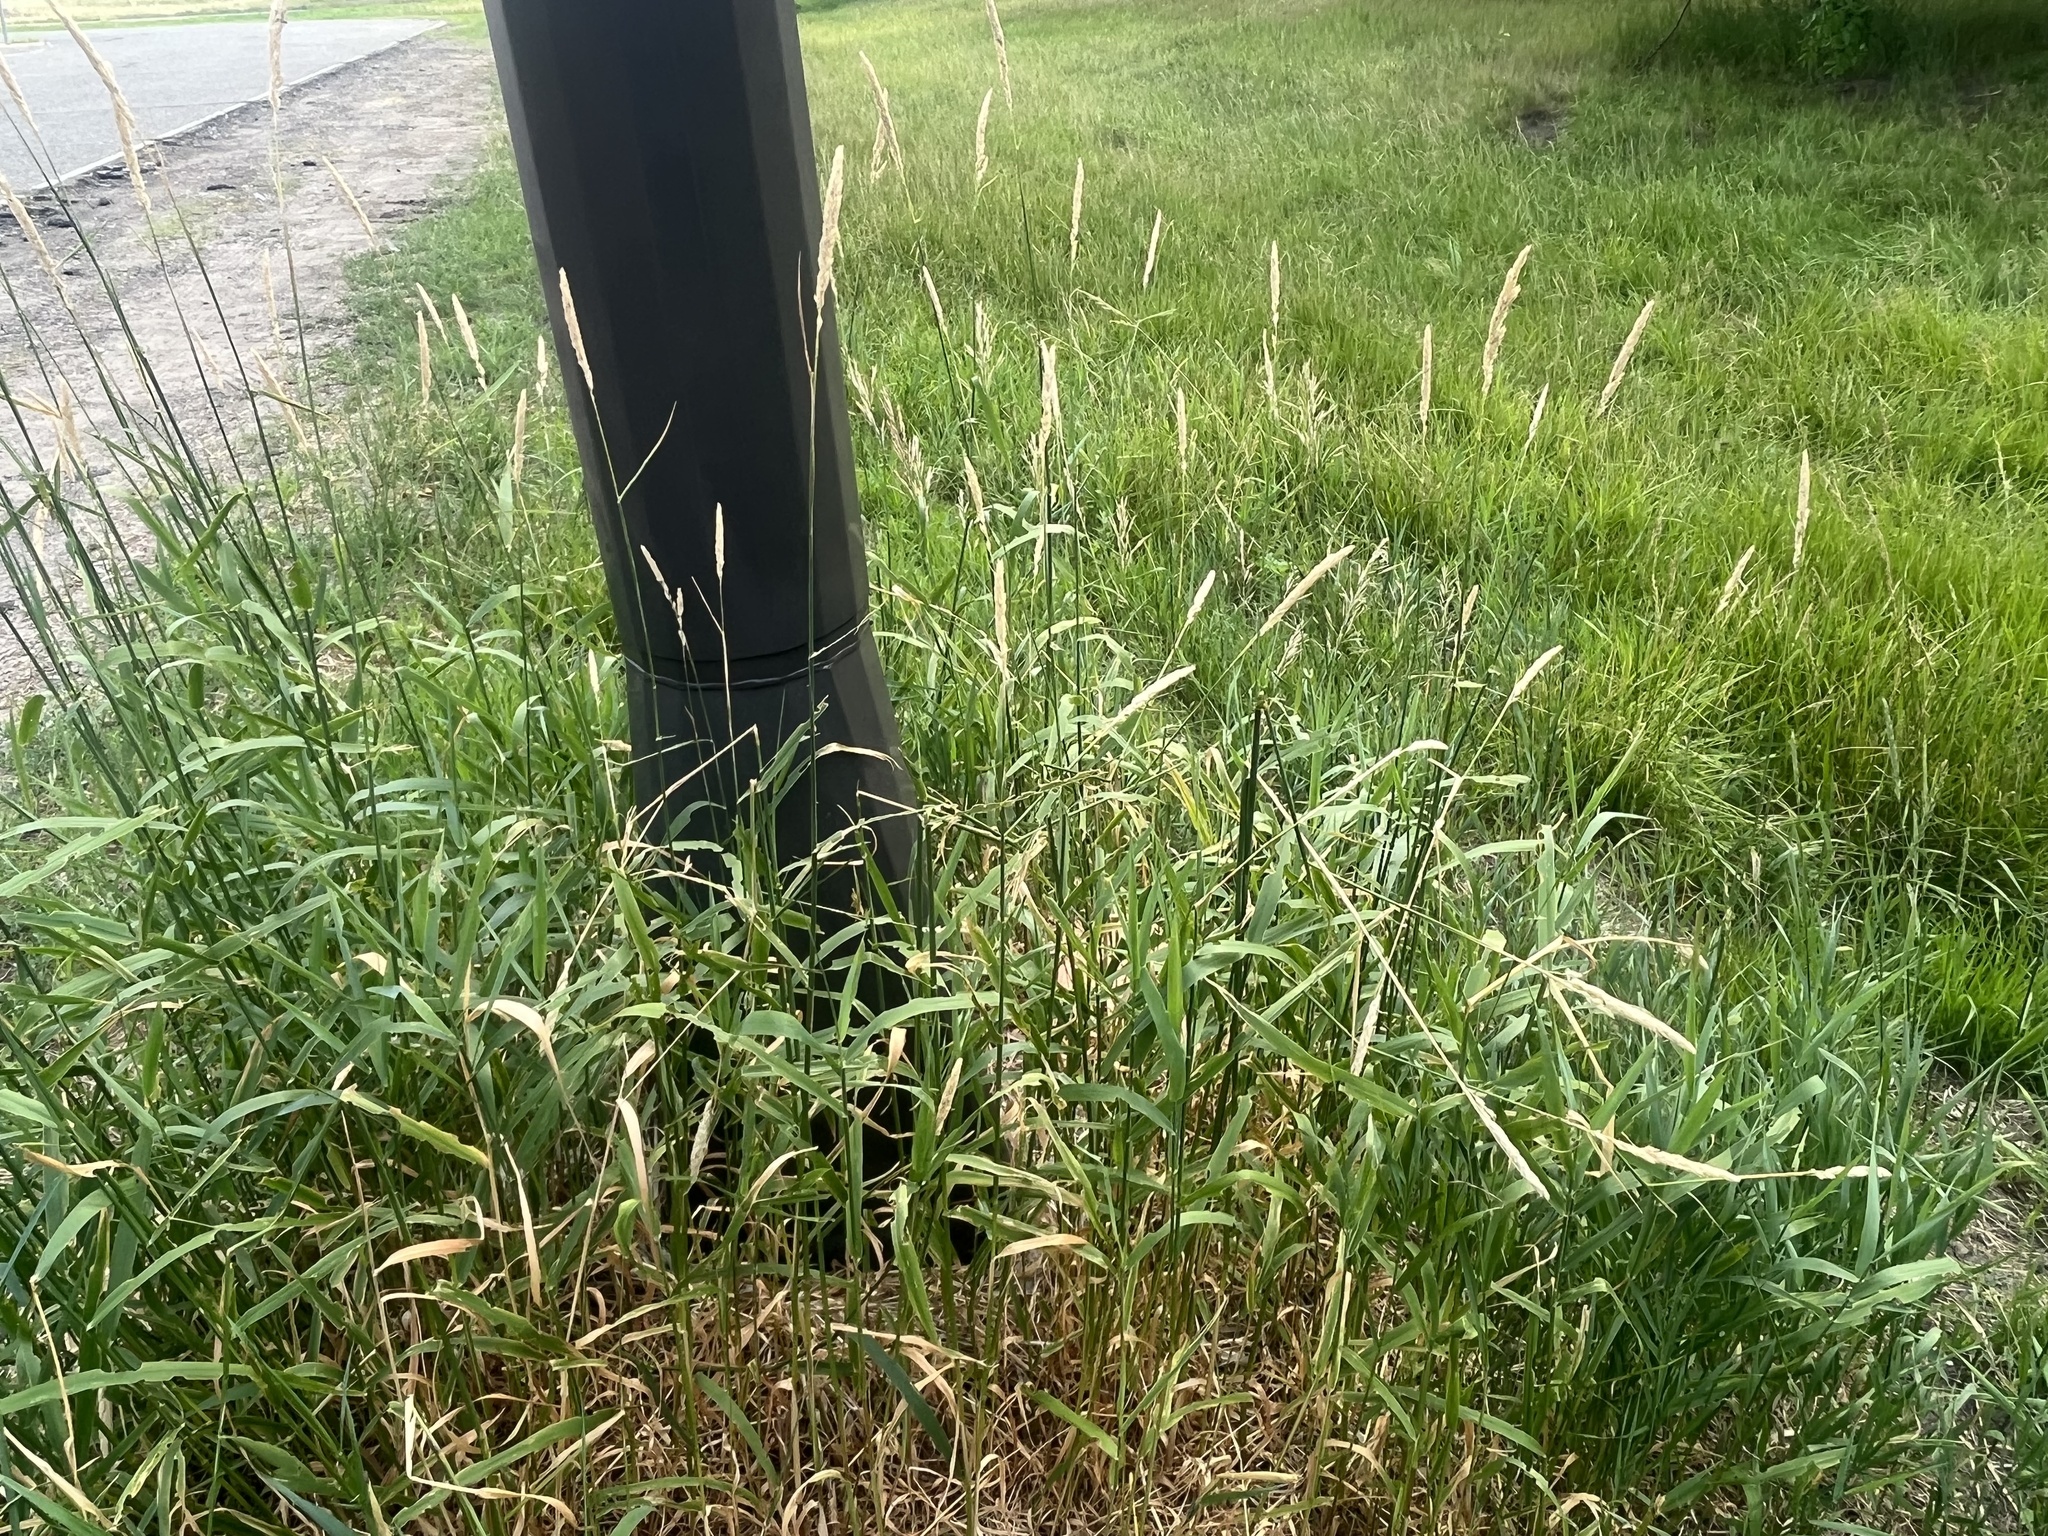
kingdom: Plantae
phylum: Tracheophyta
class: Liliopsida
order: Poales
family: Poaceae
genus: Phalaris
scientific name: Phalaris arundinacea
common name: Reed canary-grass
